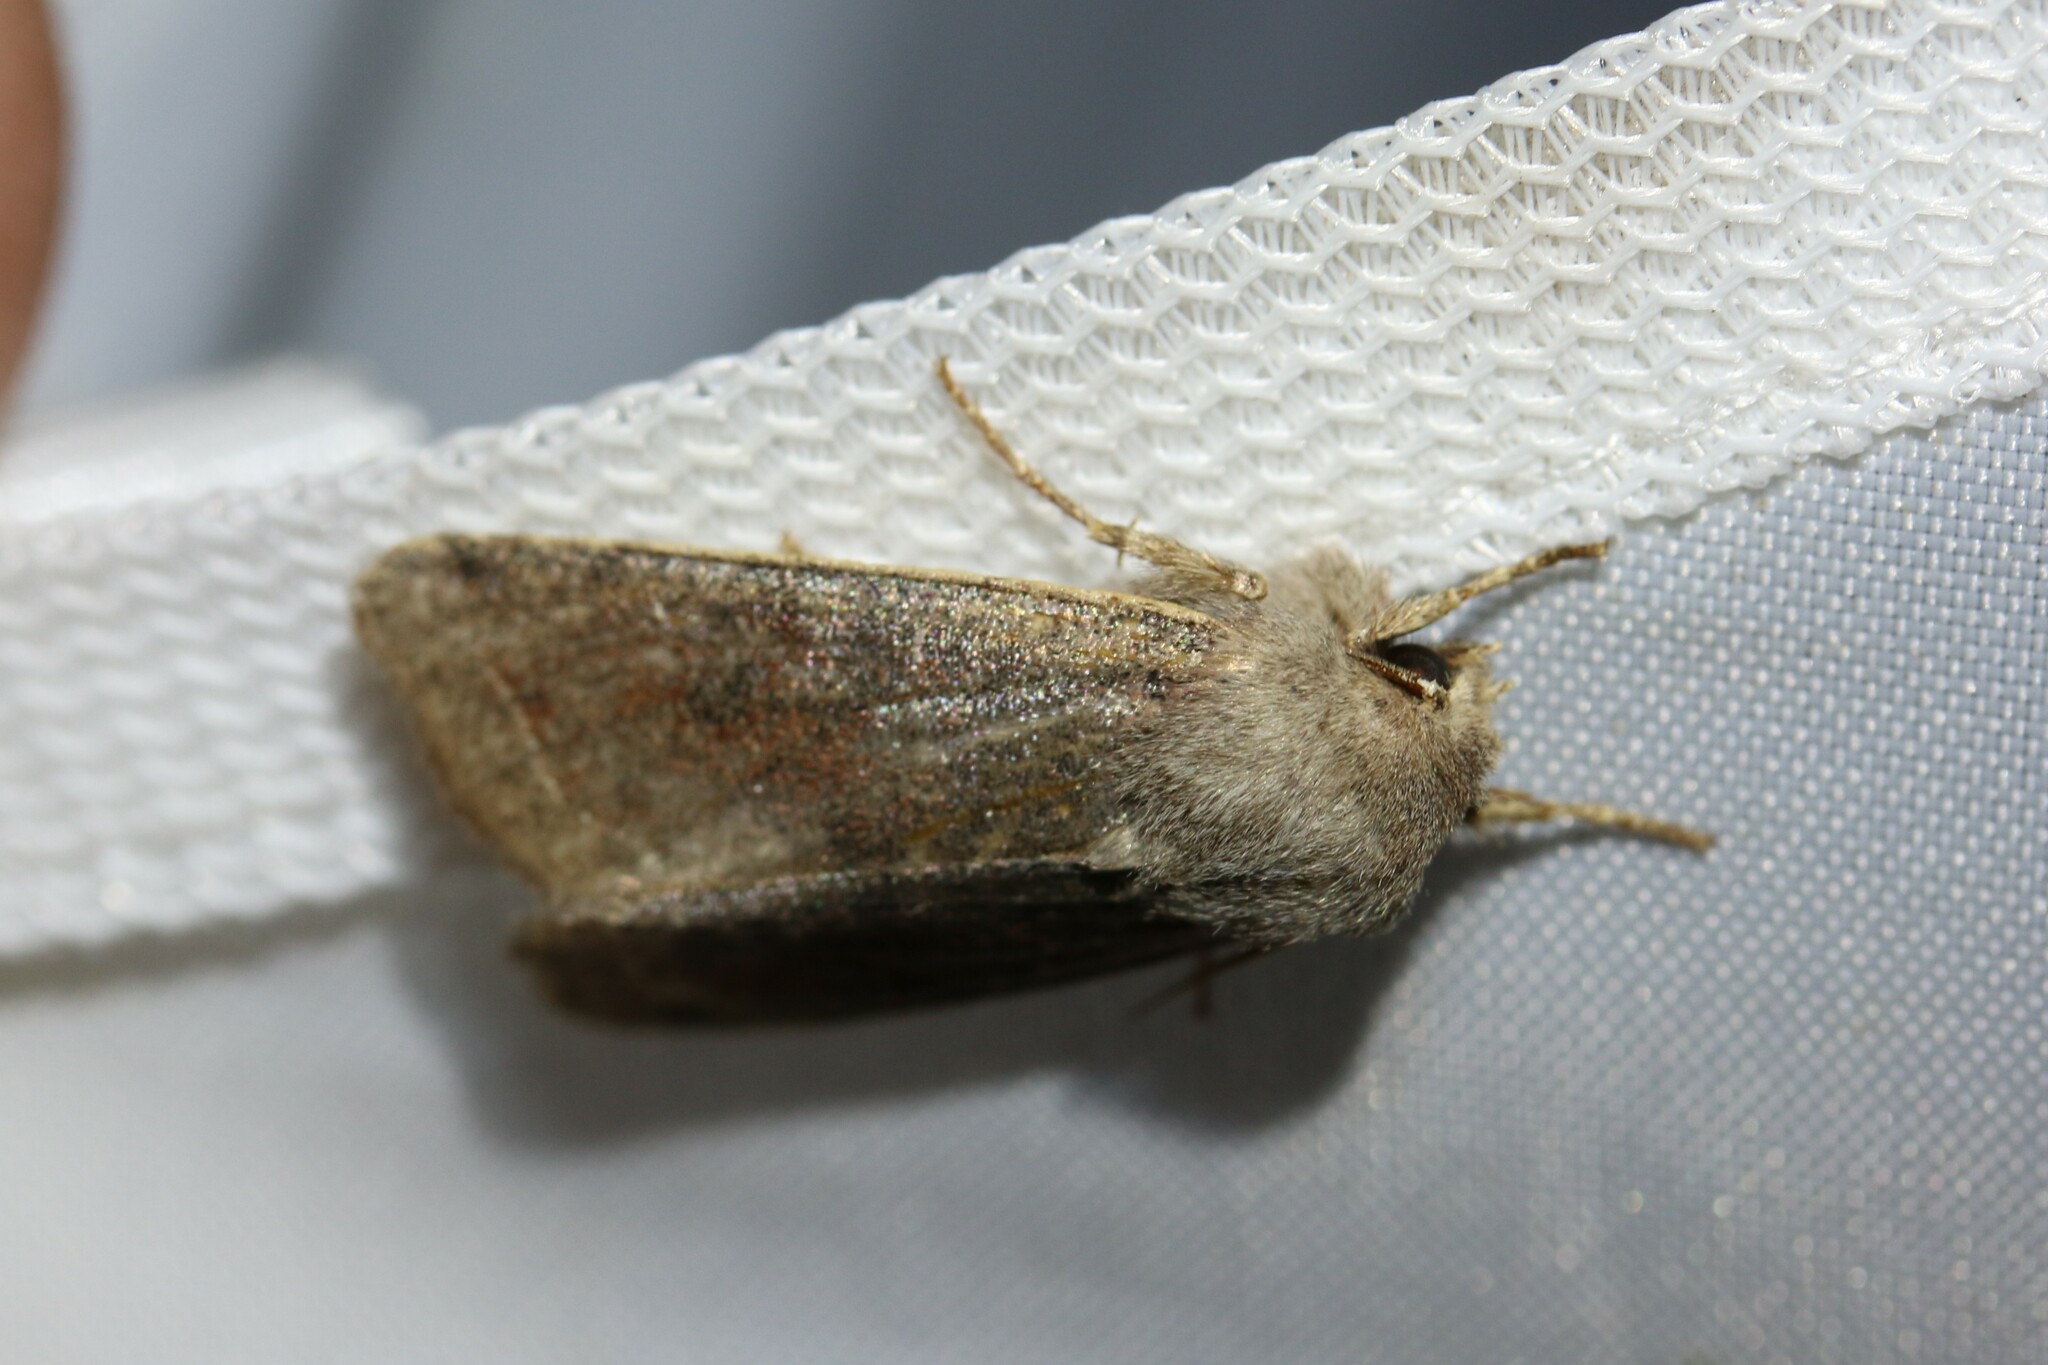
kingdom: Animalia
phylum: Arthropoda
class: Insecta
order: Lepidoptera
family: Noctuidae
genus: Orthosia
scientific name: Orthosia incerta
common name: Clouded drab
